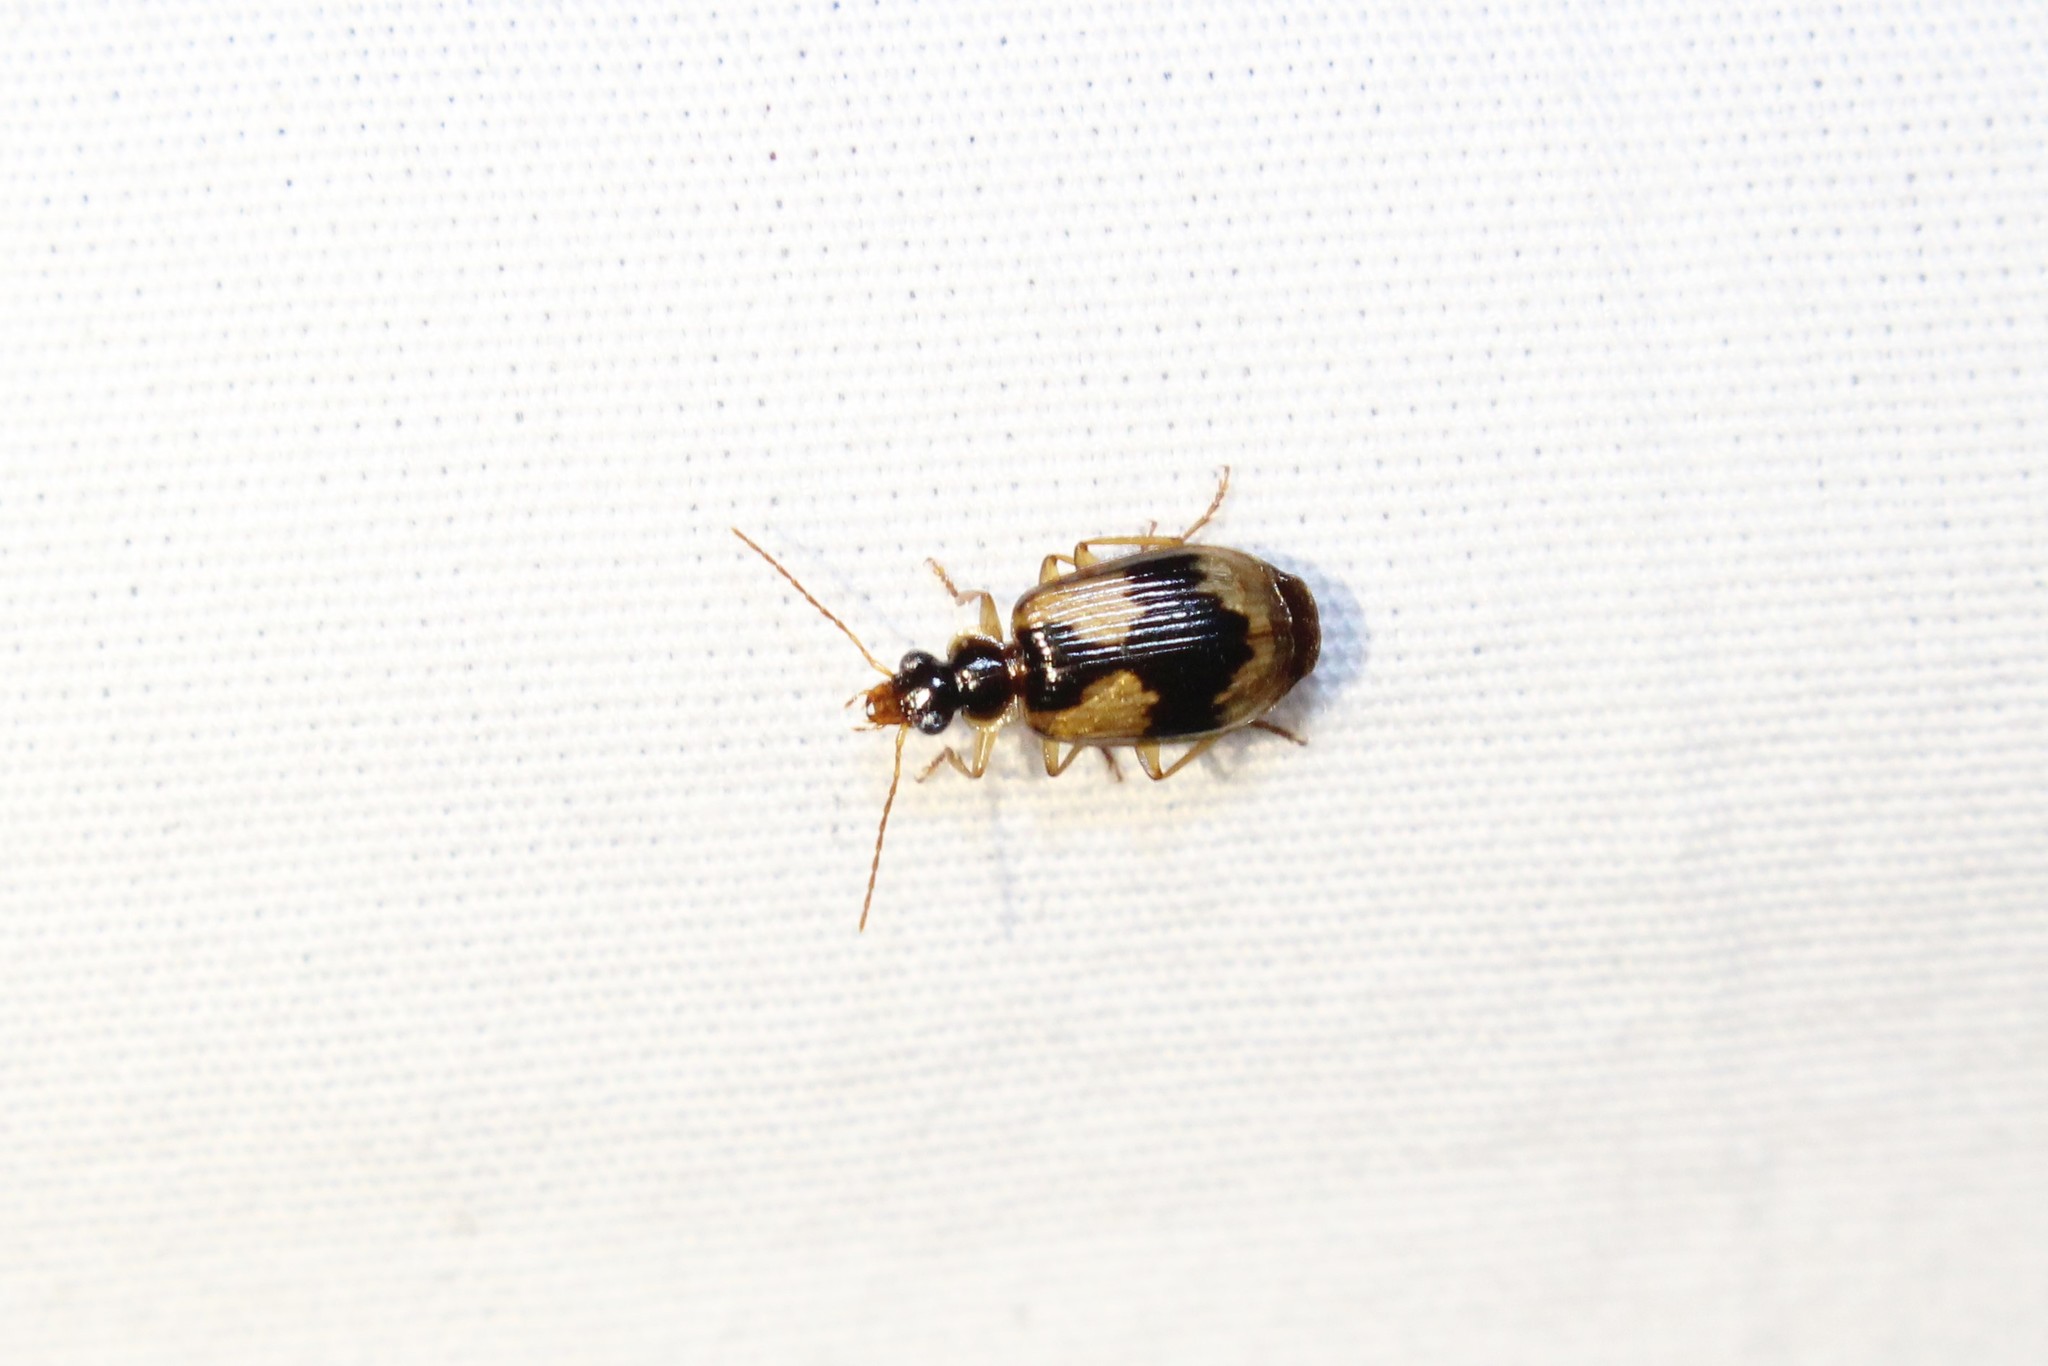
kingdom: Animalia
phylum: Arthropoda
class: Insecta
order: Coleoptera
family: Carabidae
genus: Lebia
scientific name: Lebia fuscata
